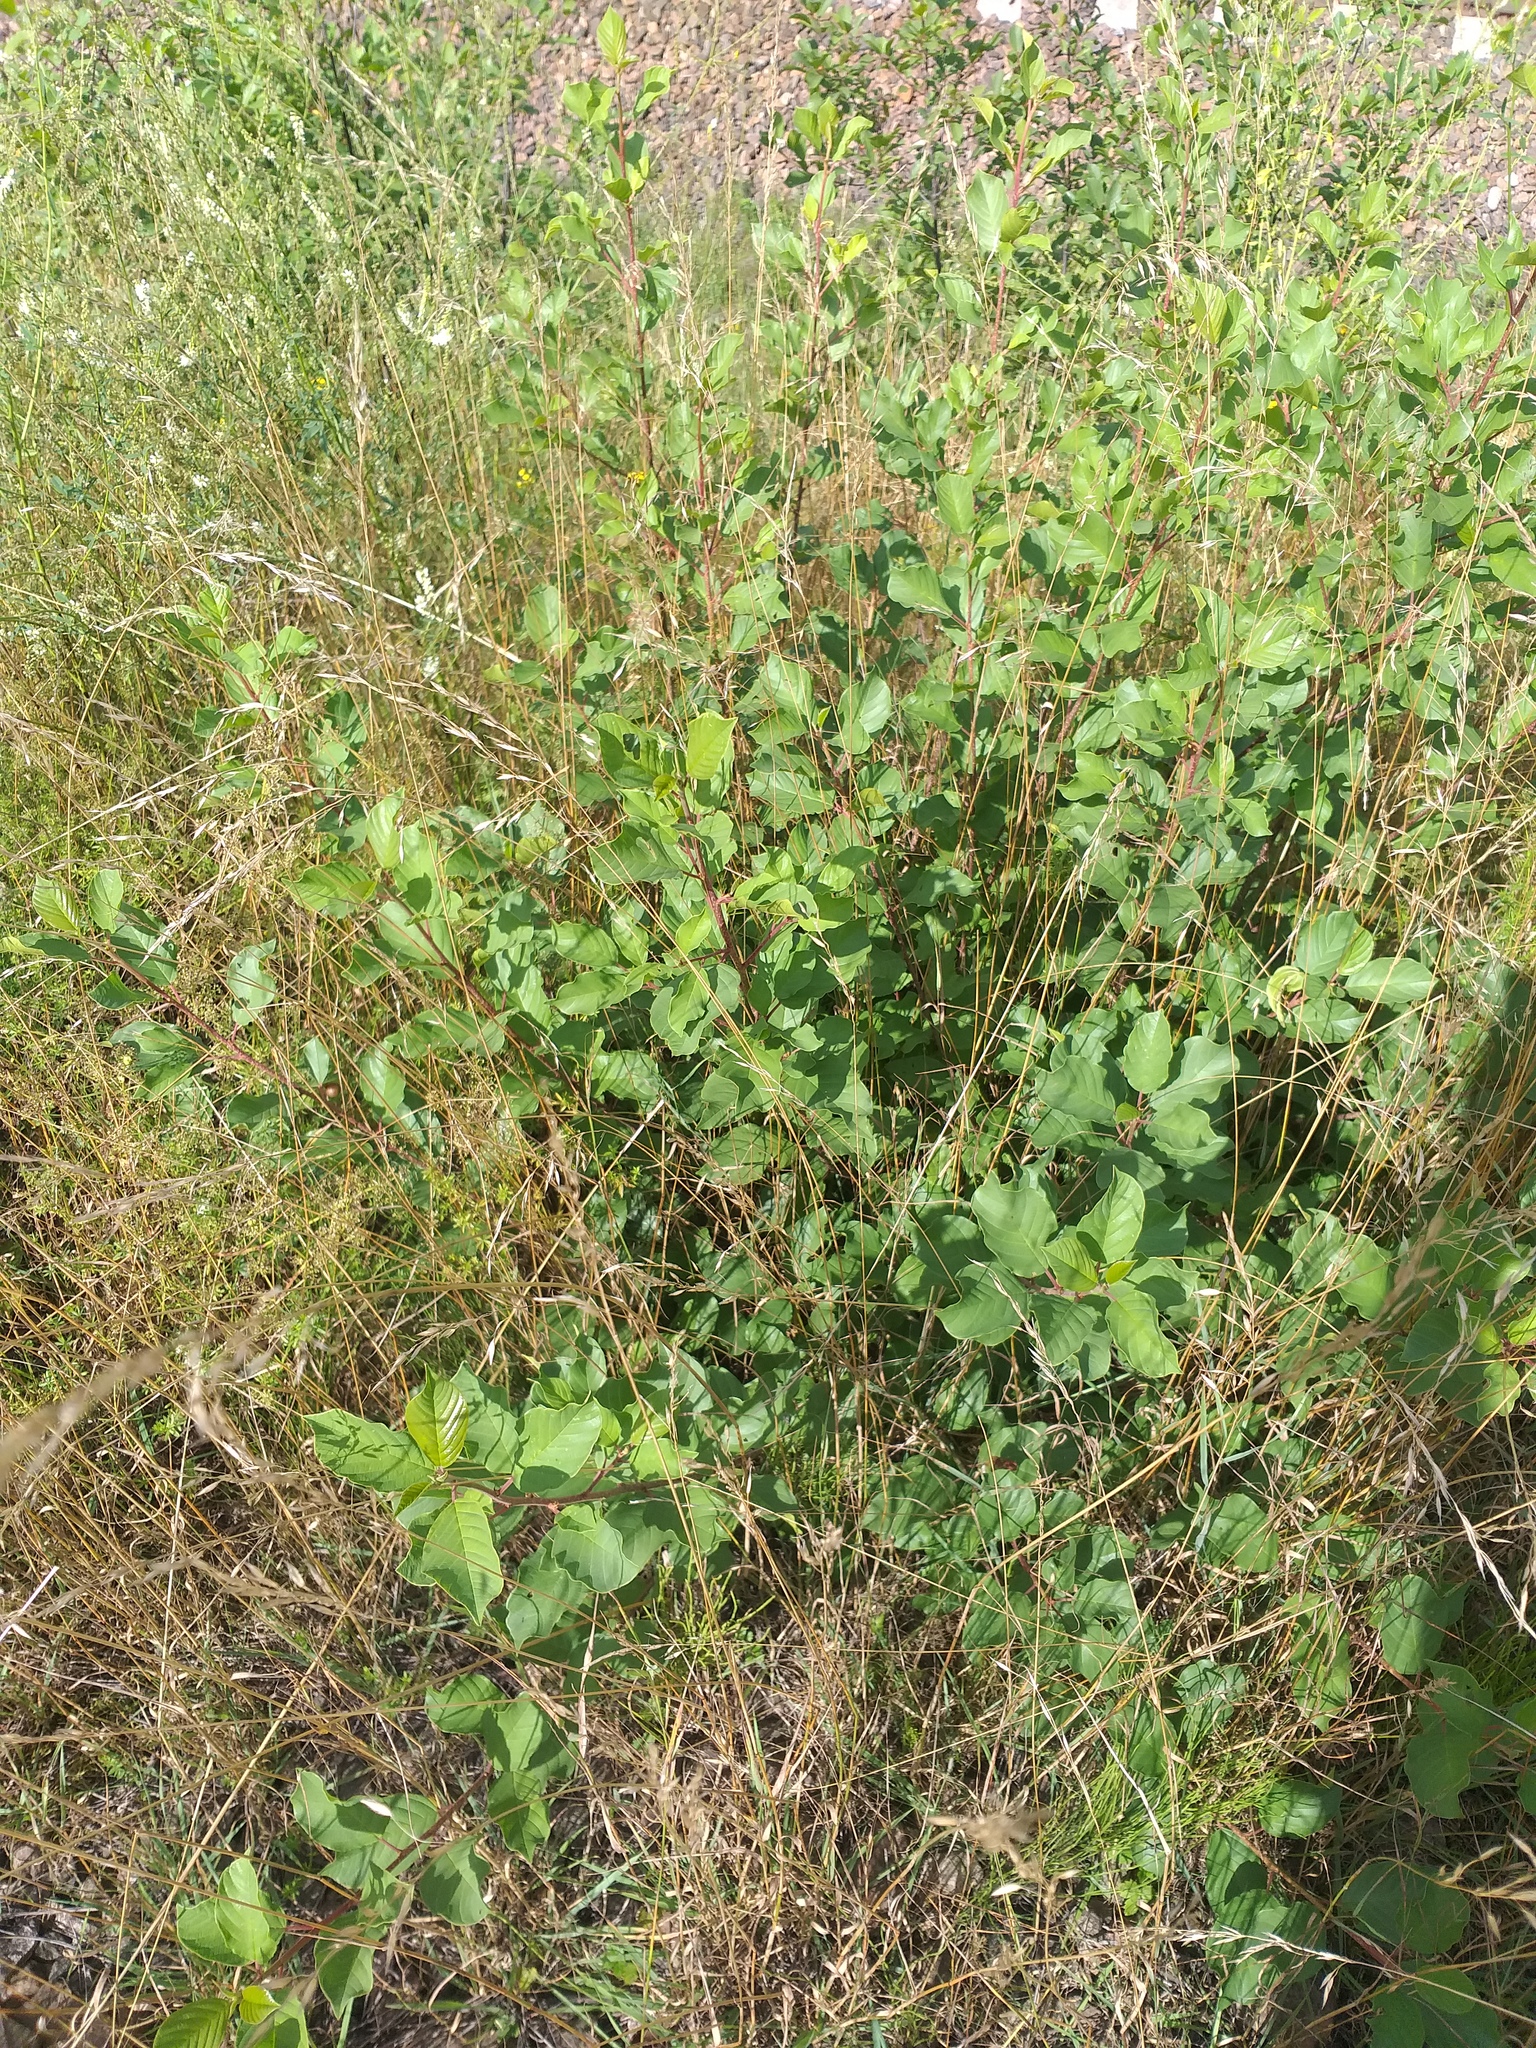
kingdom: Plantae
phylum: Tracheophyta
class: Magnoliopsida
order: Rosales
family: Rhamnaceae
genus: Frangula
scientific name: Frangula alnus
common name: Alder buckthorn
